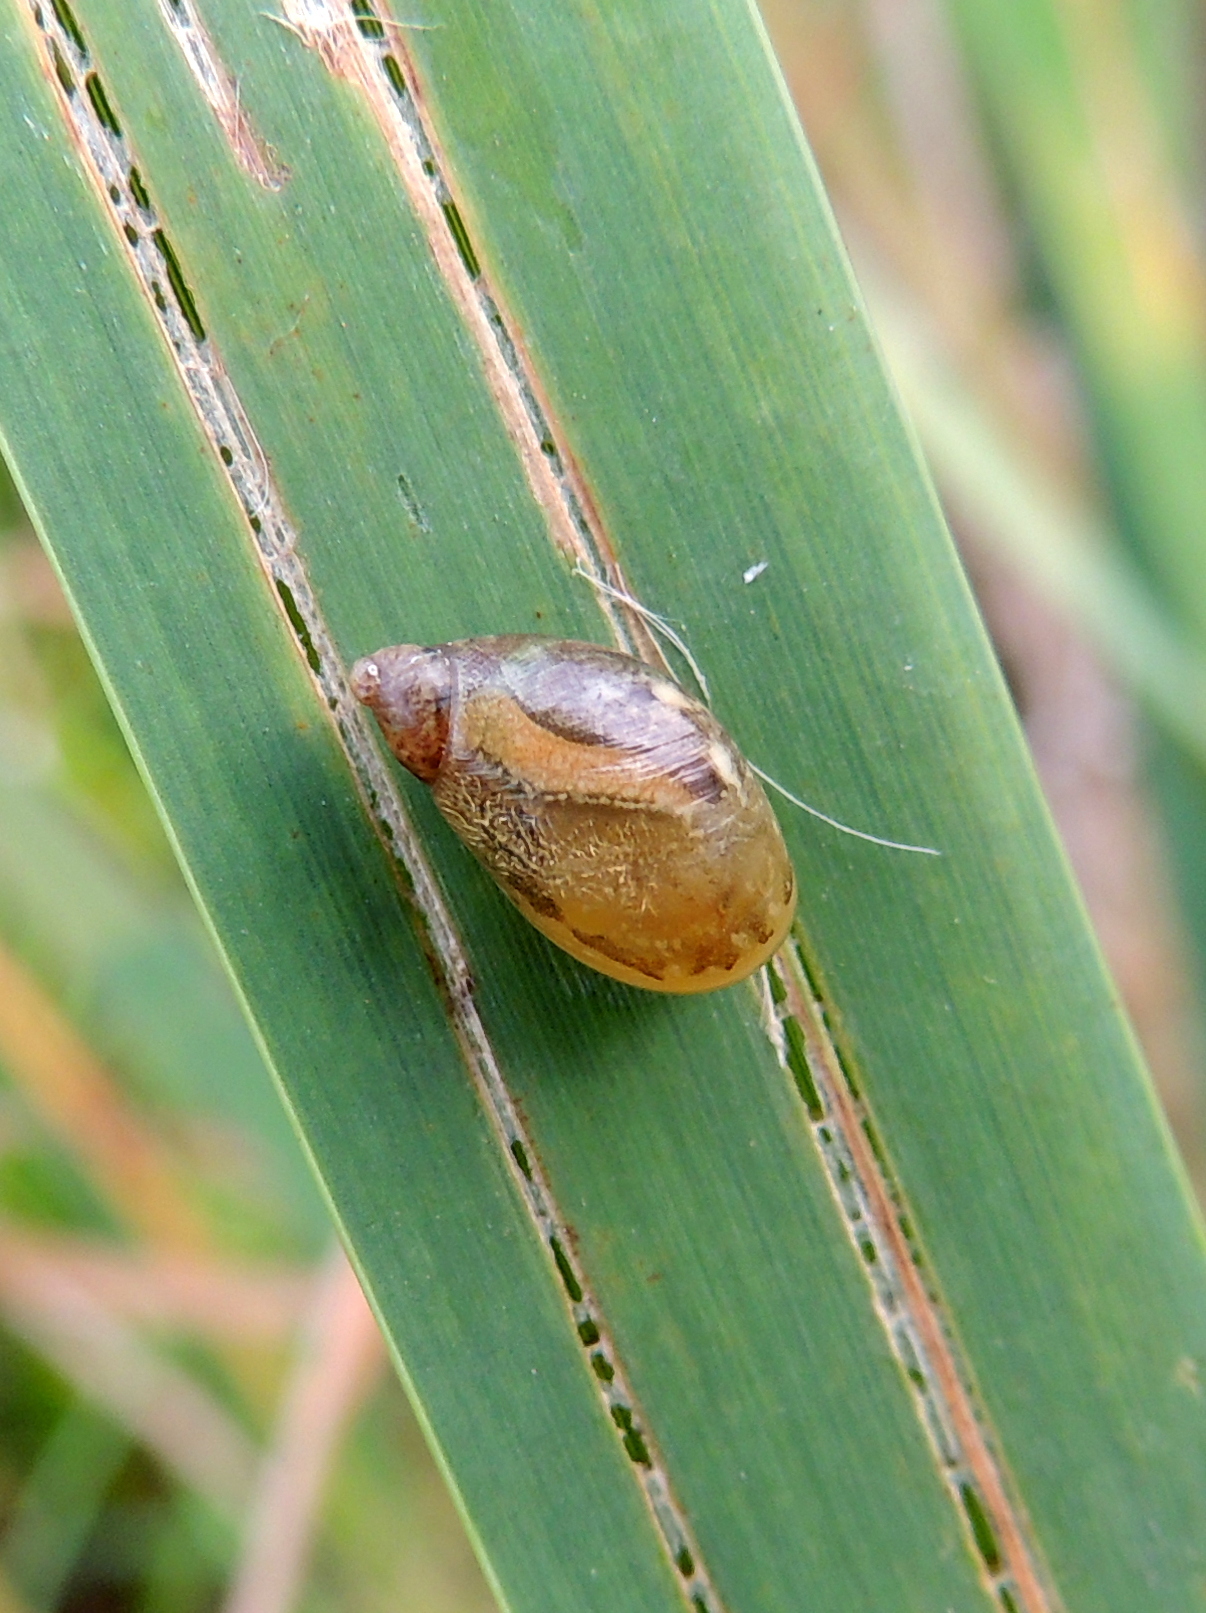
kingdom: Animalia
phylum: Mollusca
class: Gastropoda
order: Stylommatophora
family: Succineidae
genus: Succinea
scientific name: Succinea putris
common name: European ambersnail
